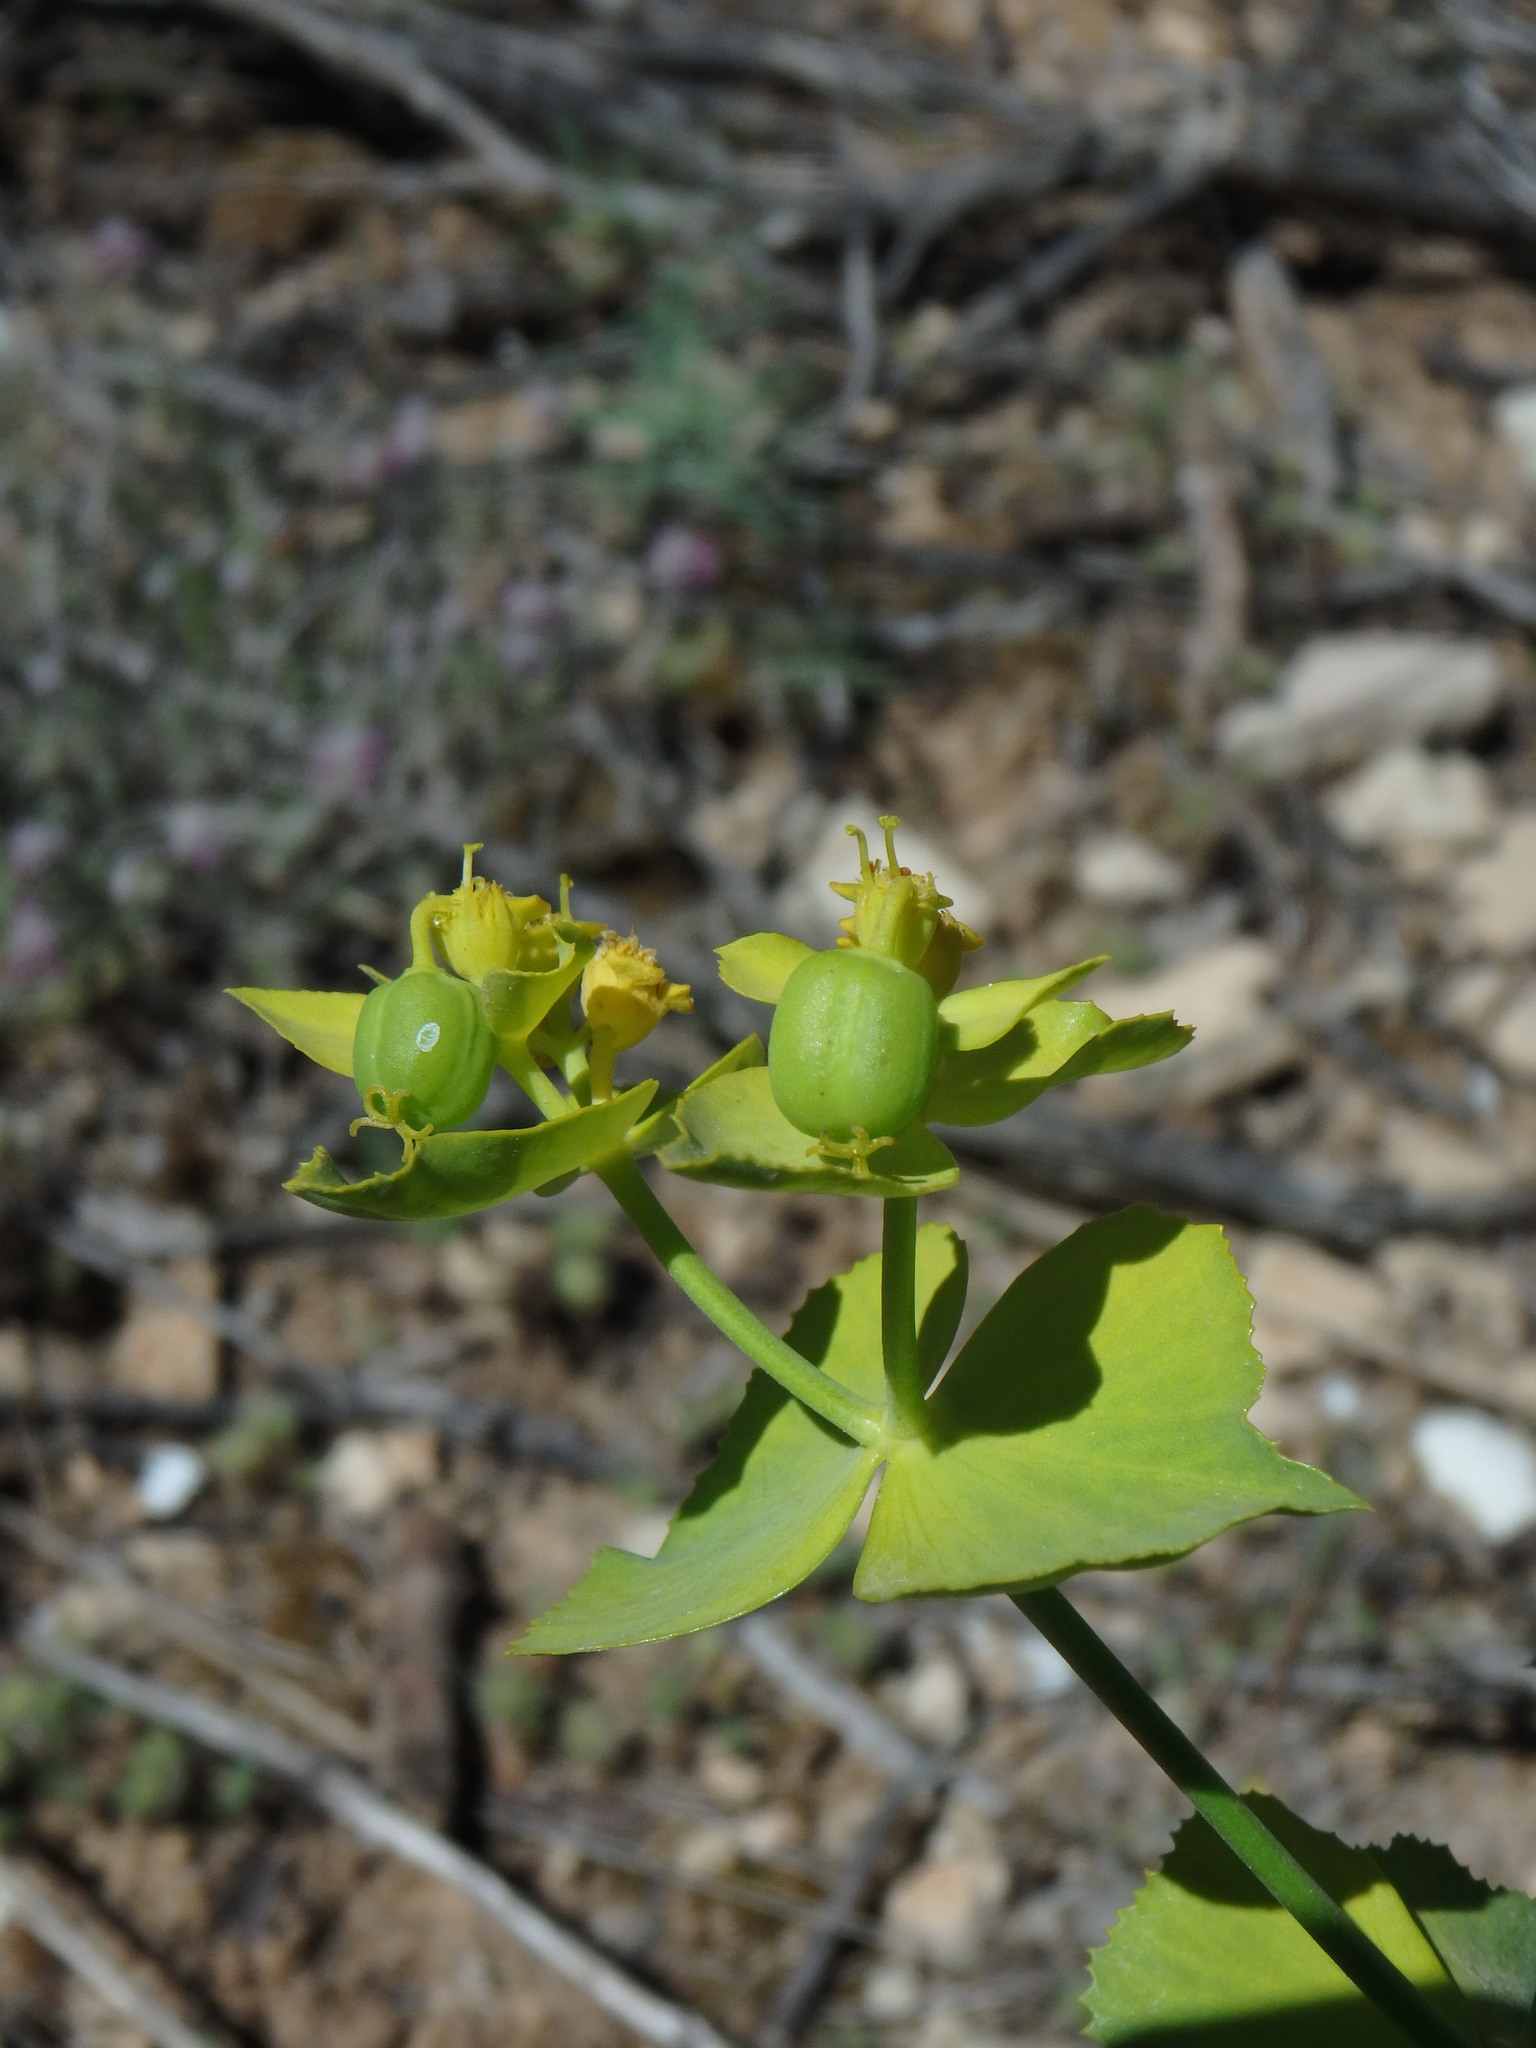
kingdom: Plantae
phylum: Tracheophyta
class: Magnoliopsida
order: Malpighiales
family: Euphorbiaceae
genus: Euphorbia
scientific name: Euphorbia serrata
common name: Serrate spurge
